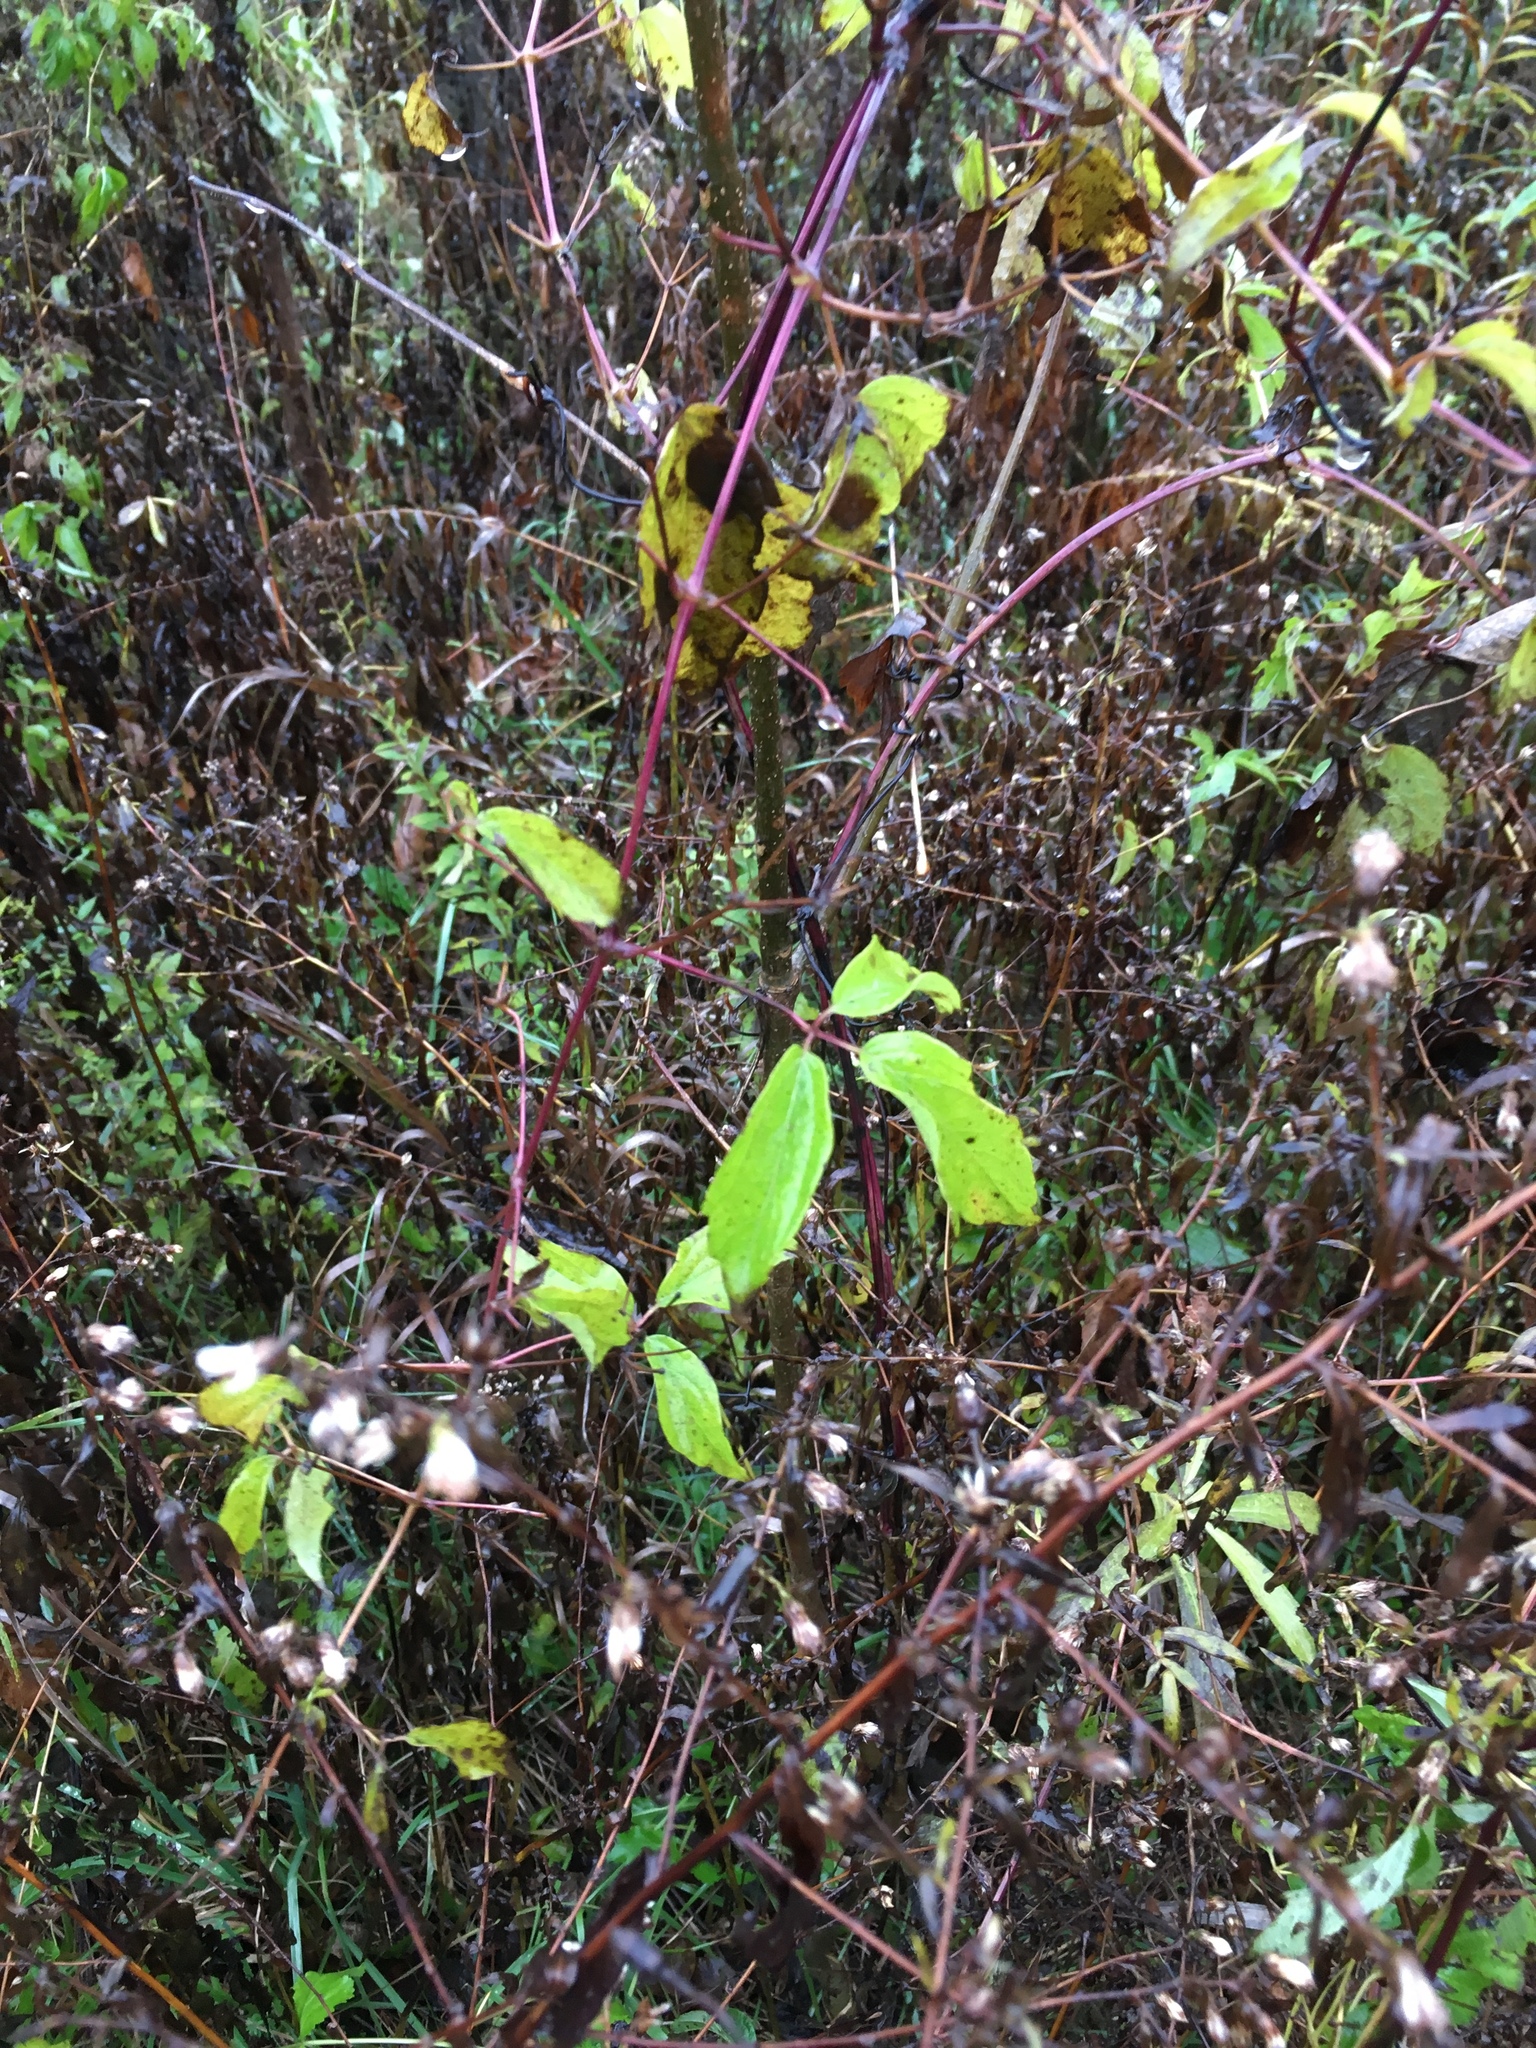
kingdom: Plantae
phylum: Tracheophyta
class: Magnoliopsida
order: Ranunculales
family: Ranunculaceae
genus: Clematis
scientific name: Clematis virginiana
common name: Virgin's-bower
